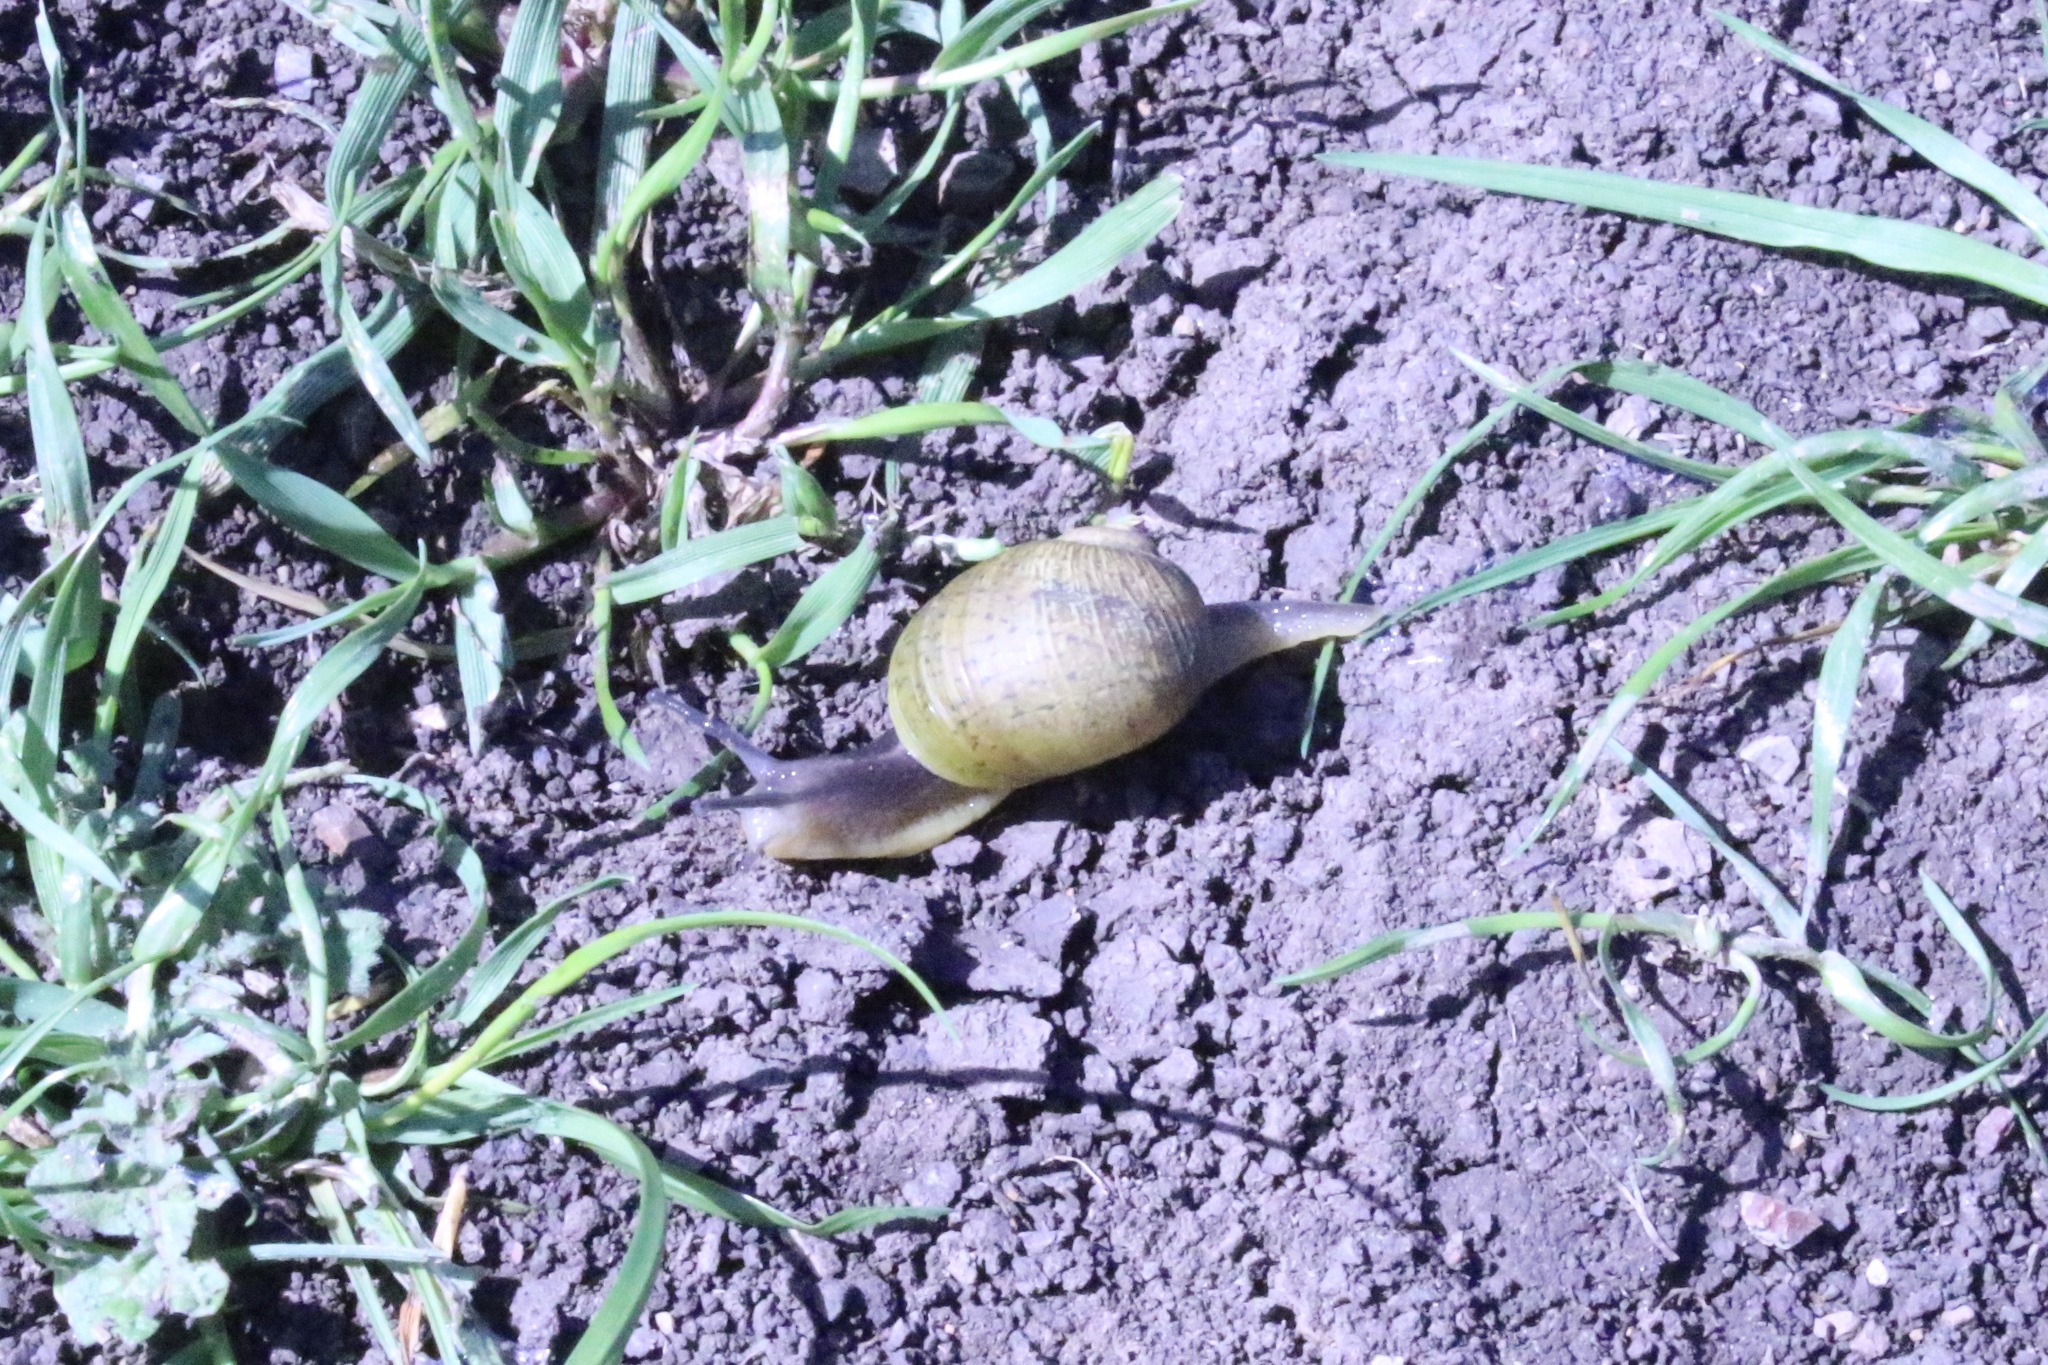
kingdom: Animalia
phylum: Mollusca
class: Gastropoda
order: Stylommatophora
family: Helicidae
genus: Cantareus
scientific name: Cantareus apertus
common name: Green gardensnail
